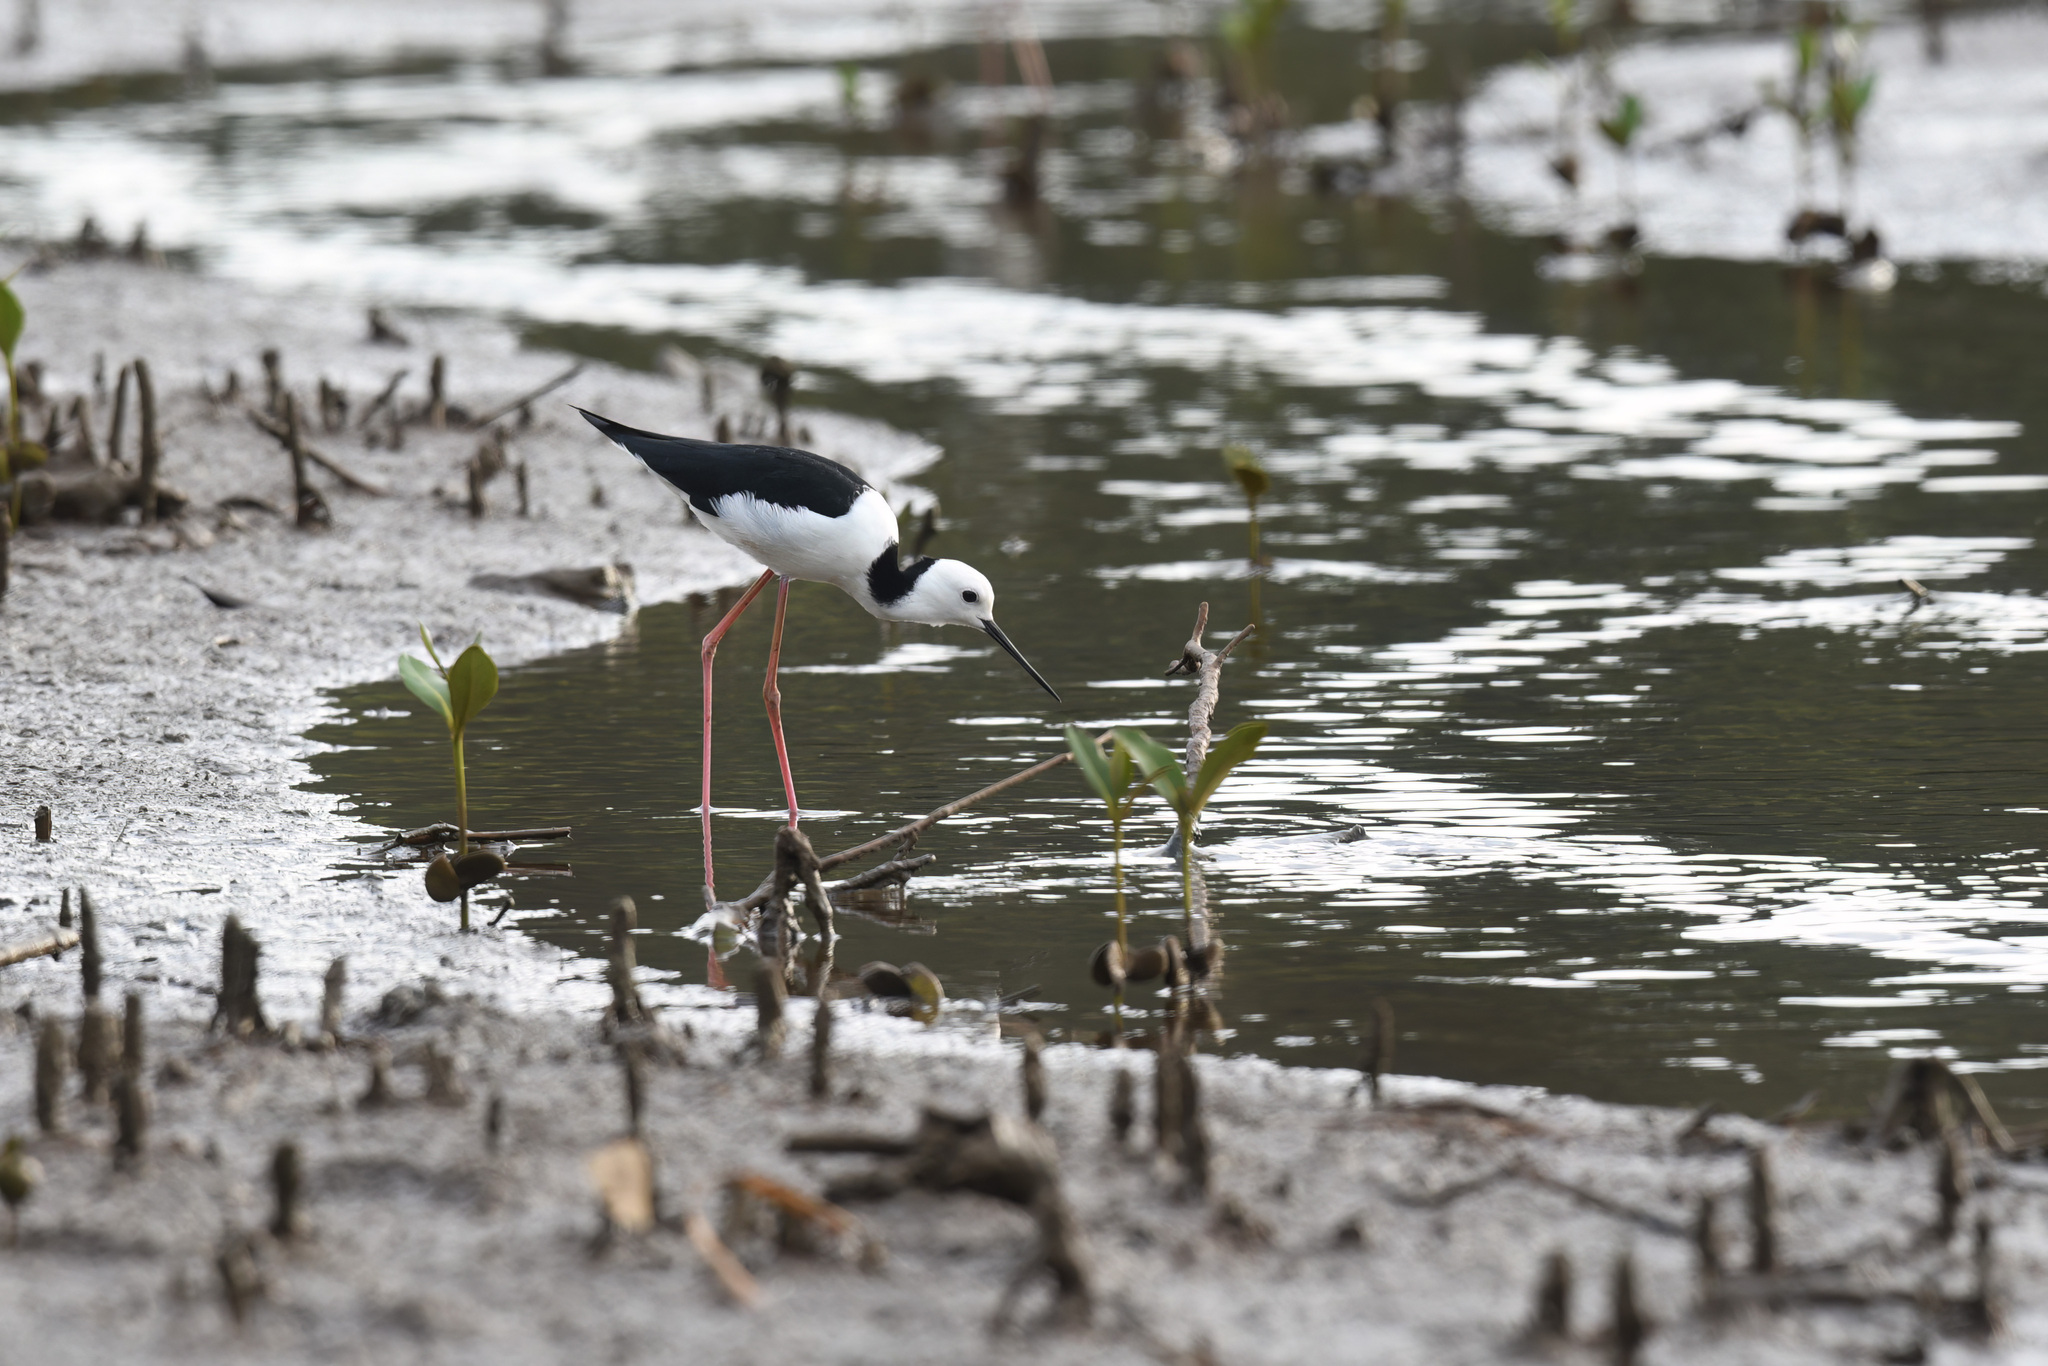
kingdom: Animalia
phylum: Chordata
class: Aves
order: Charadriiformes
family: Recurvirostridae
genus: Himantopus
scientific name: Himantopus leucocephalus
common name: White-headed stilt
